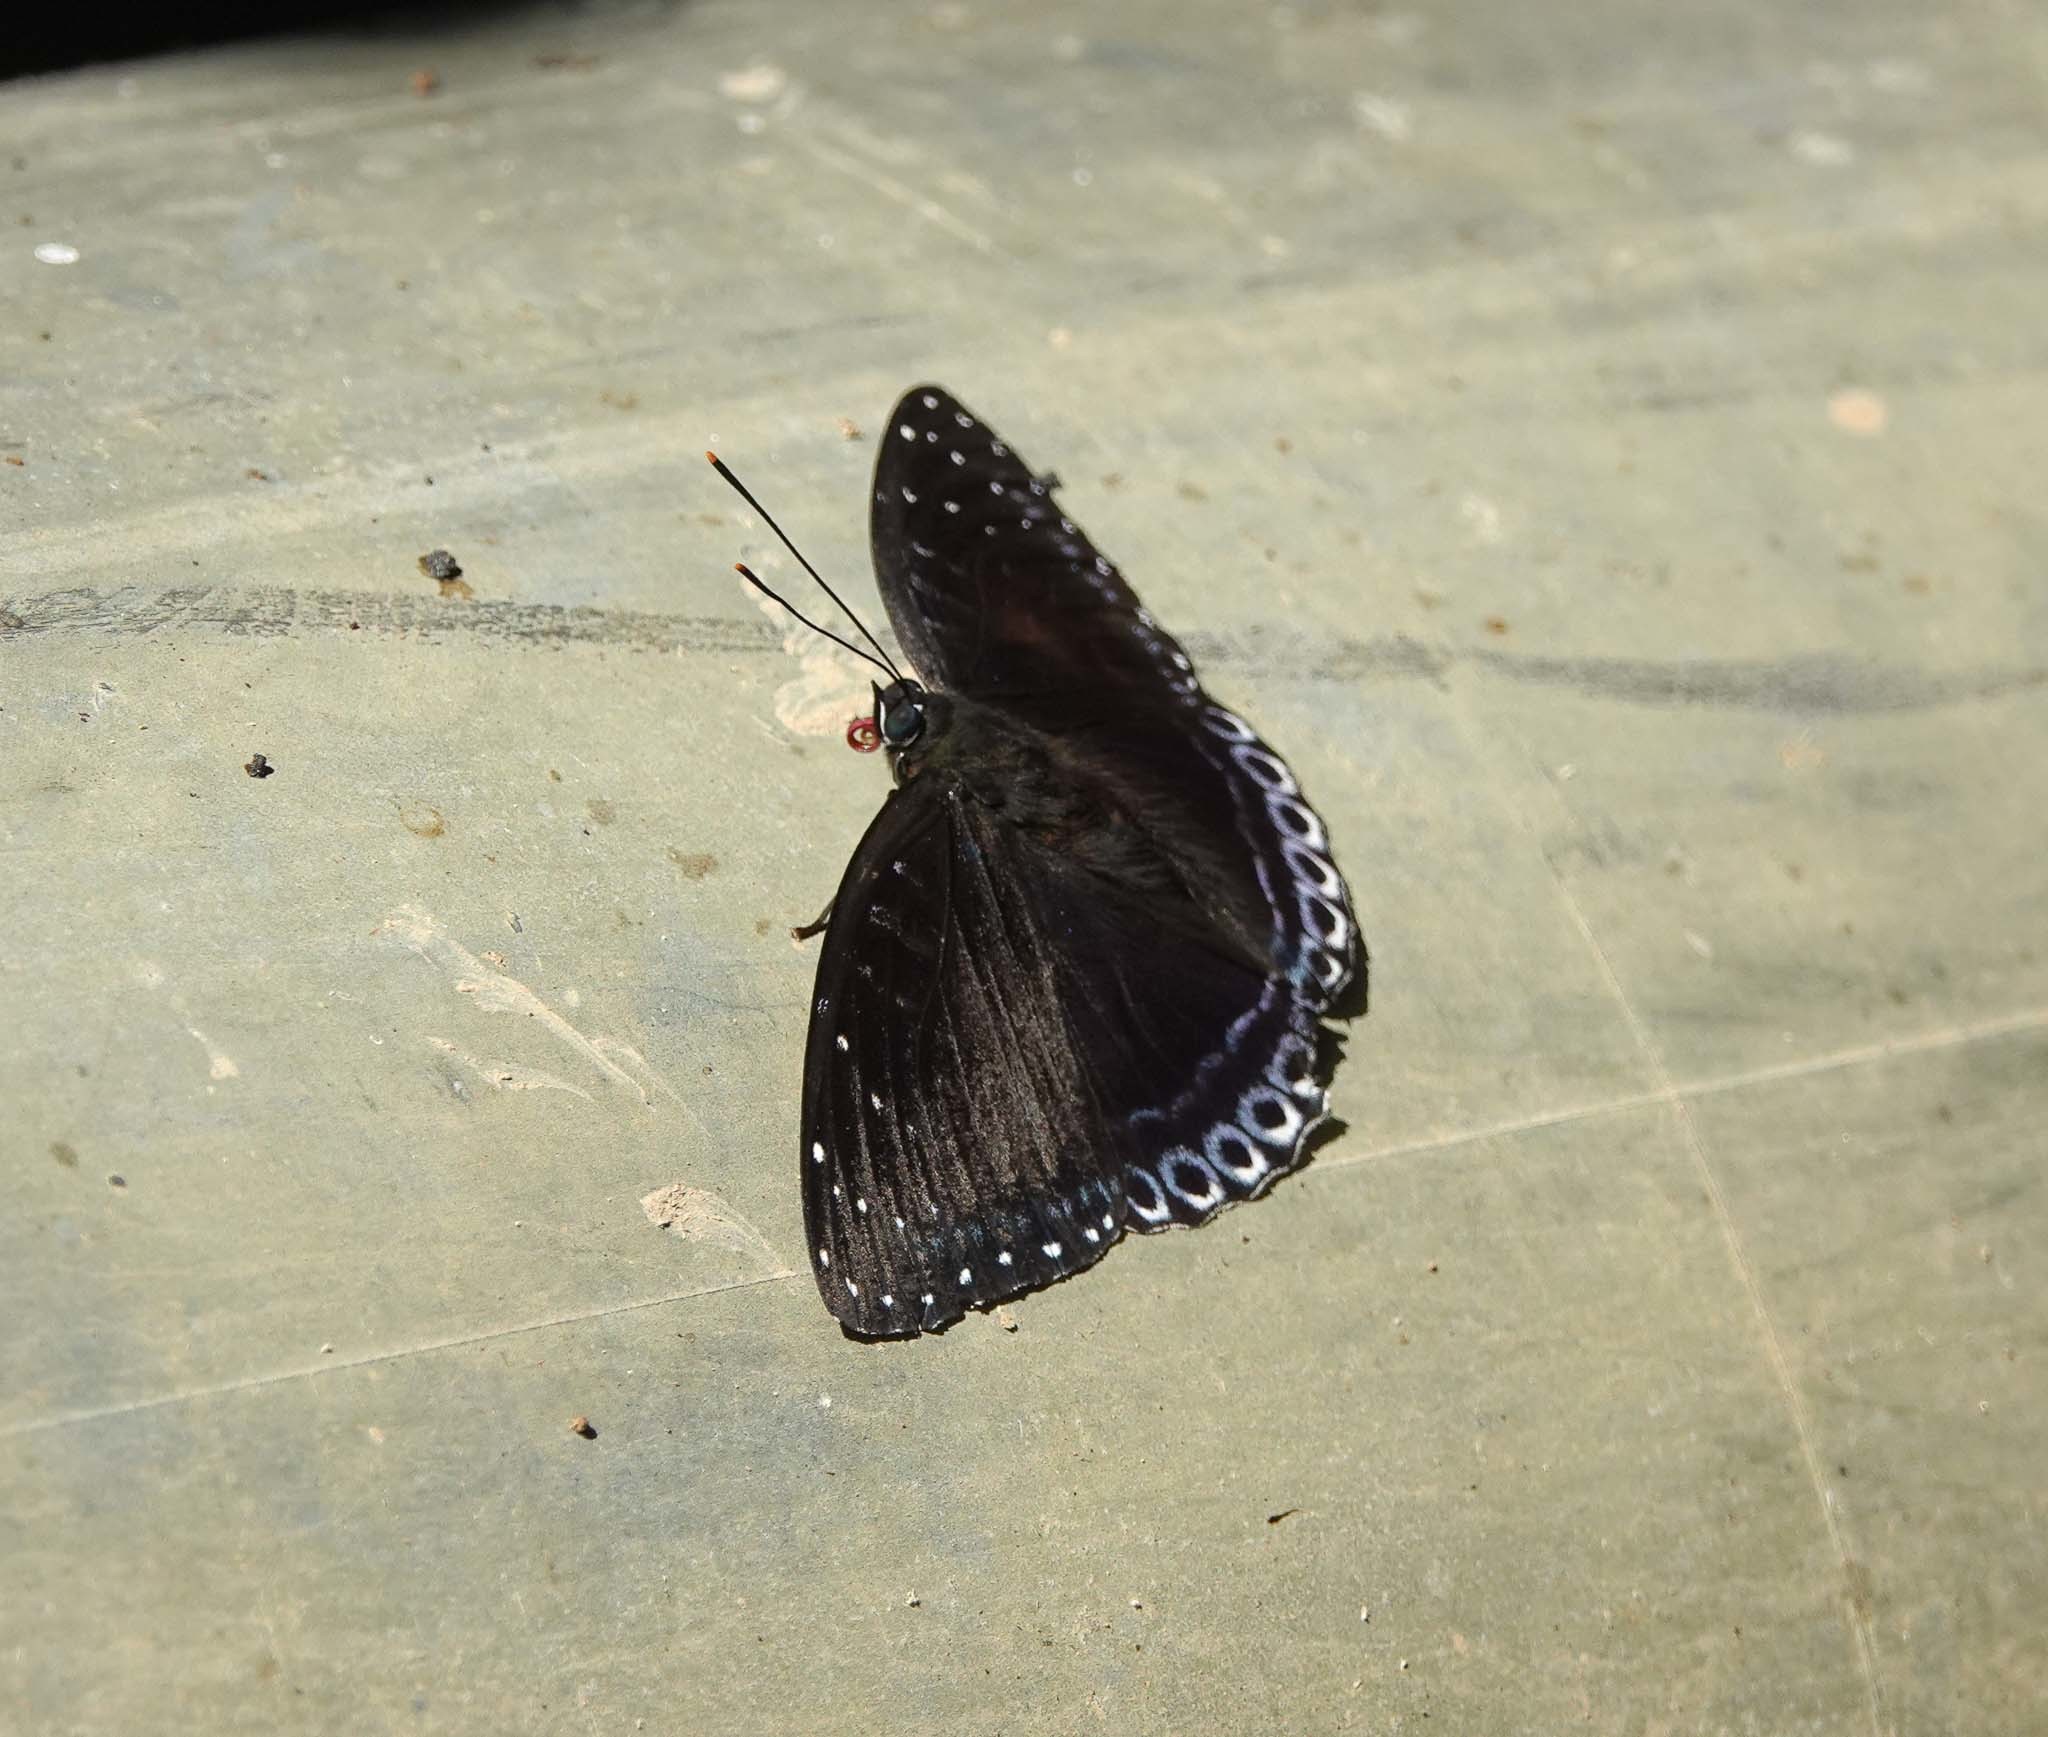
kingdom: Animalia
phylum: Arthropoda
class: Insecta
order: Lepidoptera
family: Nymphalidae
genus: Stibochiona
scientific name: Stibochiona nicea
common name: Popinjay
